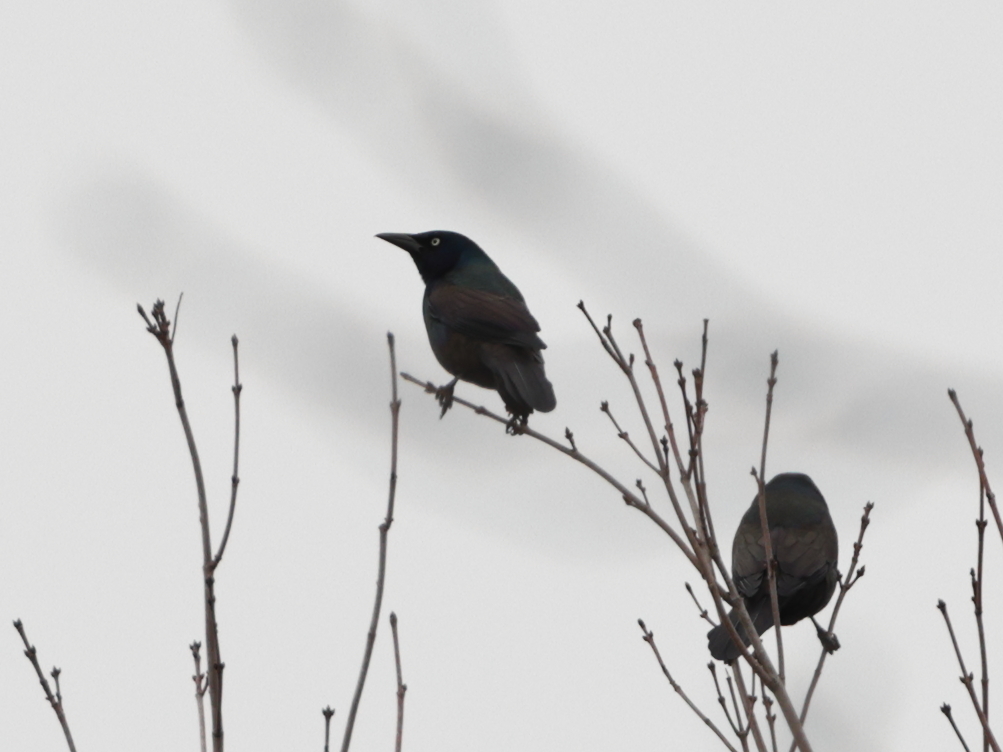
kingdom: Animalia
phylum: Chordata
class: Aves
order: Passeriformes
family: Icteridae
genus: Quiscalus
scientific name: Quiscalus quiscula
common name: Common grackle
